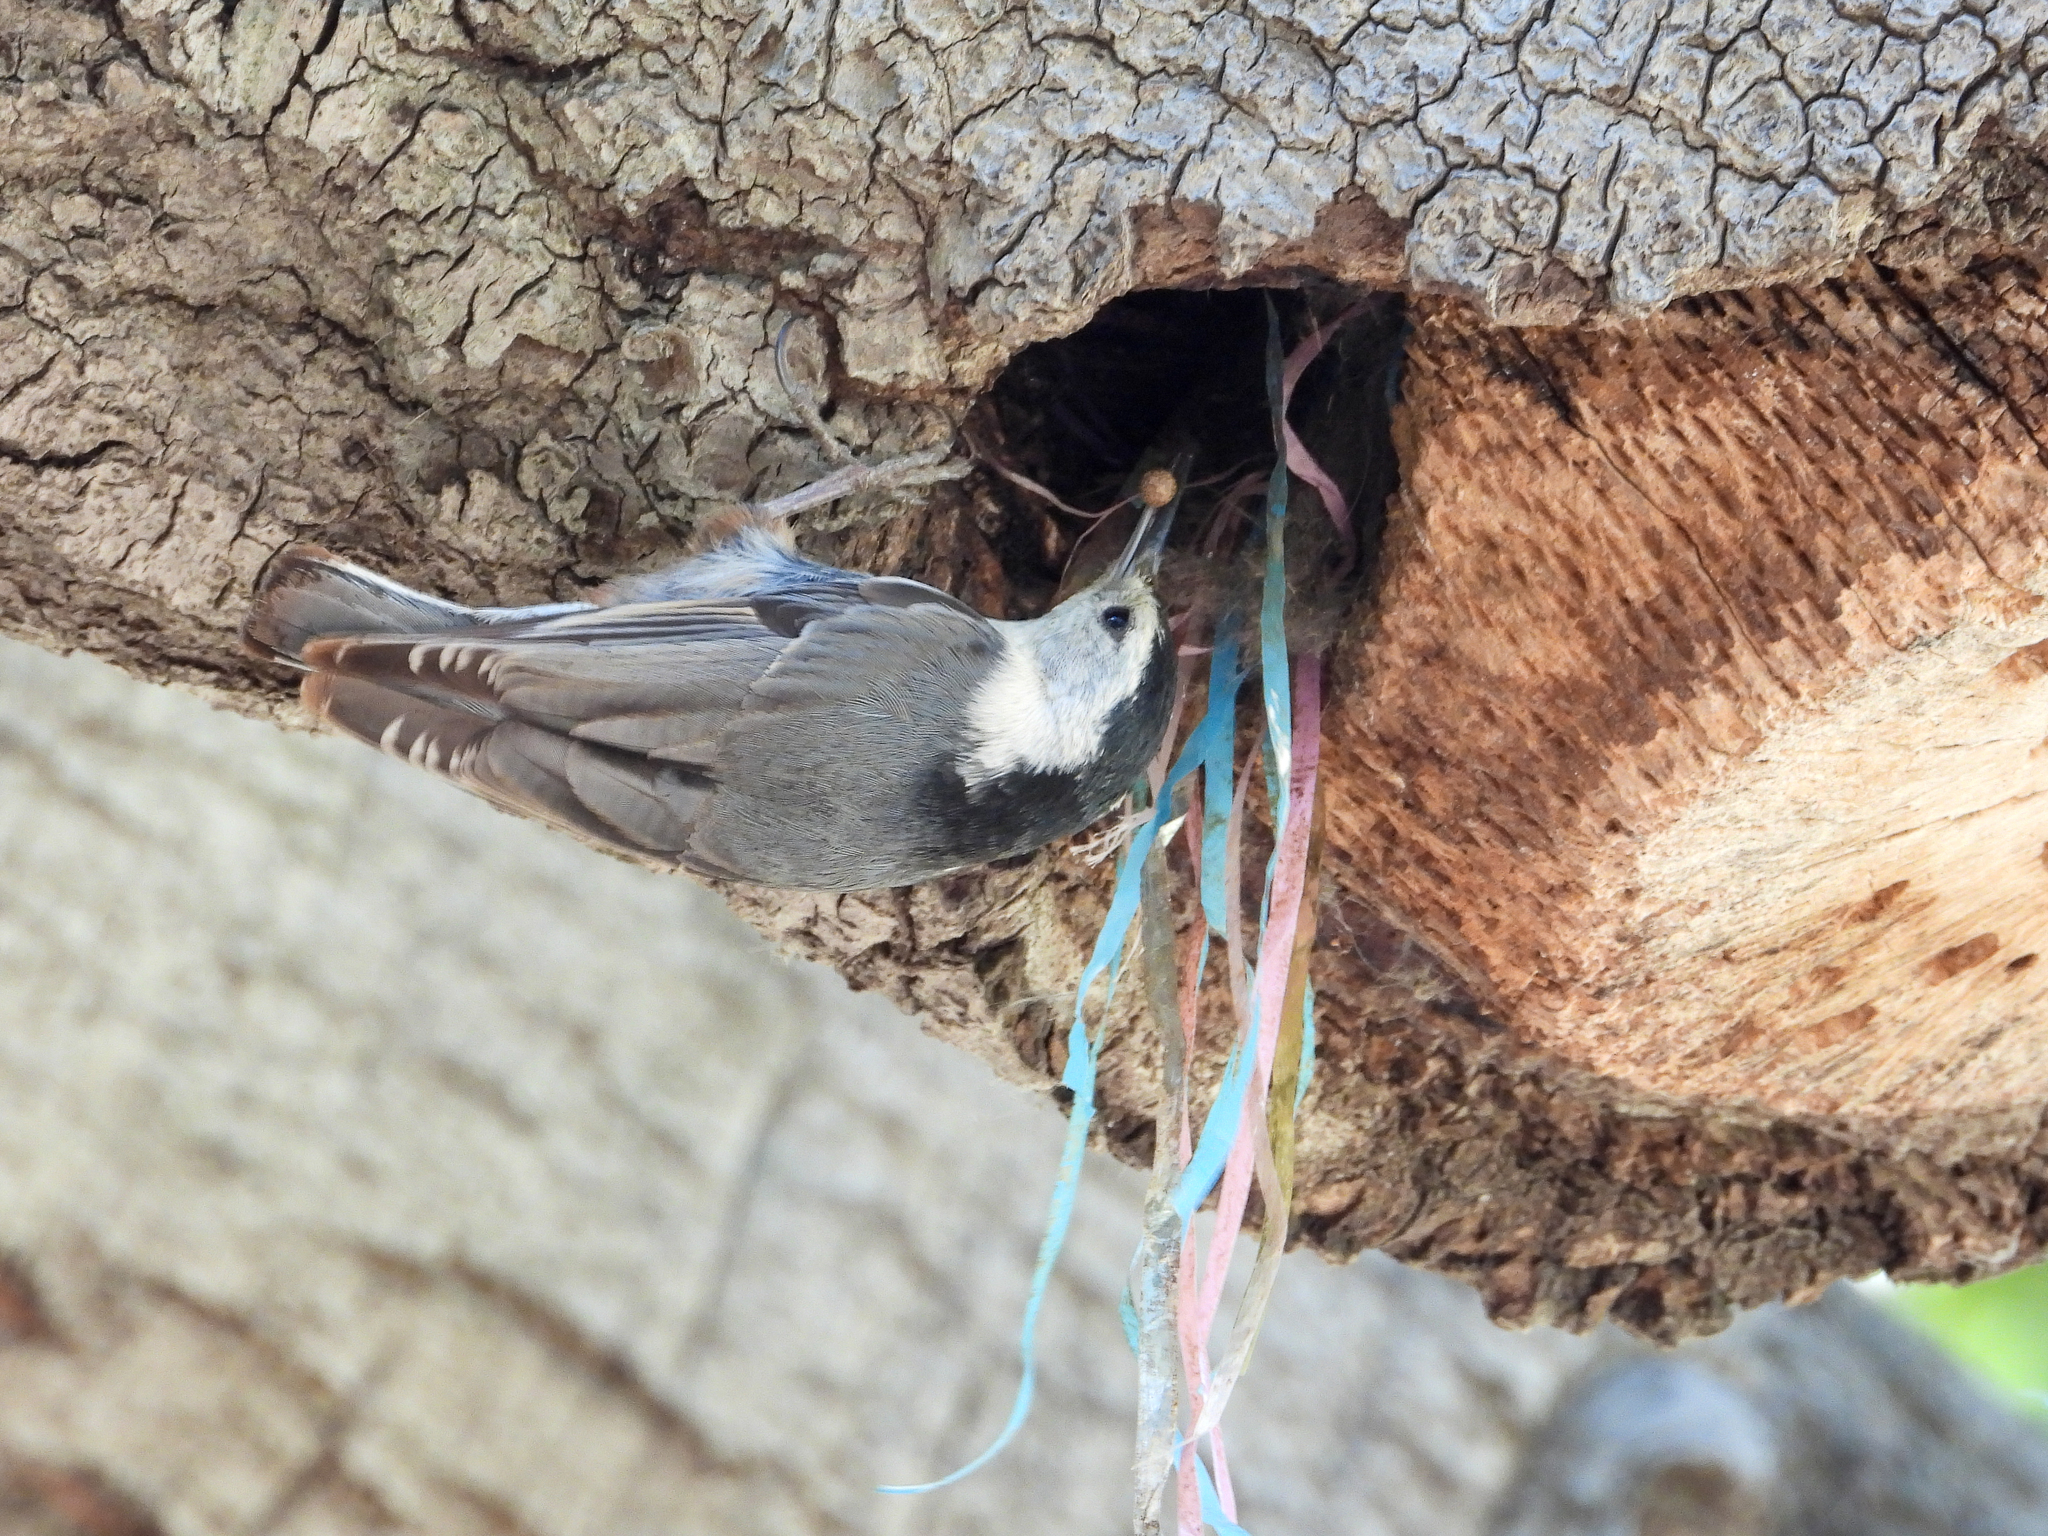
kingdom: Animalia
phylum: Chordata
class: Aves
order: Passeriformes
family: Sittidae
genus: Sitta
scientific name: Sitta carolinensis
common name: White-breasted nuthatch
